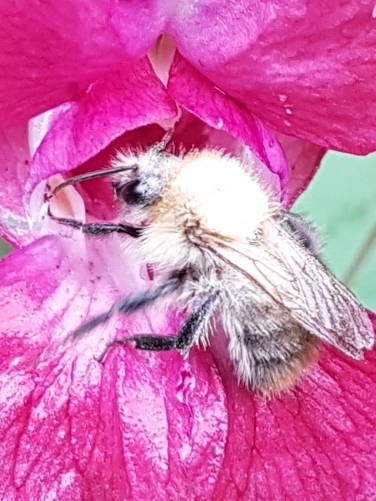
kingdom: Animalia
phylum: Arthropoda
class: Insecta
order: Hymenoptera
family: Apidae
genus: Bombus
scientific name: Bombus pascuorum
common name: Common carder bee
